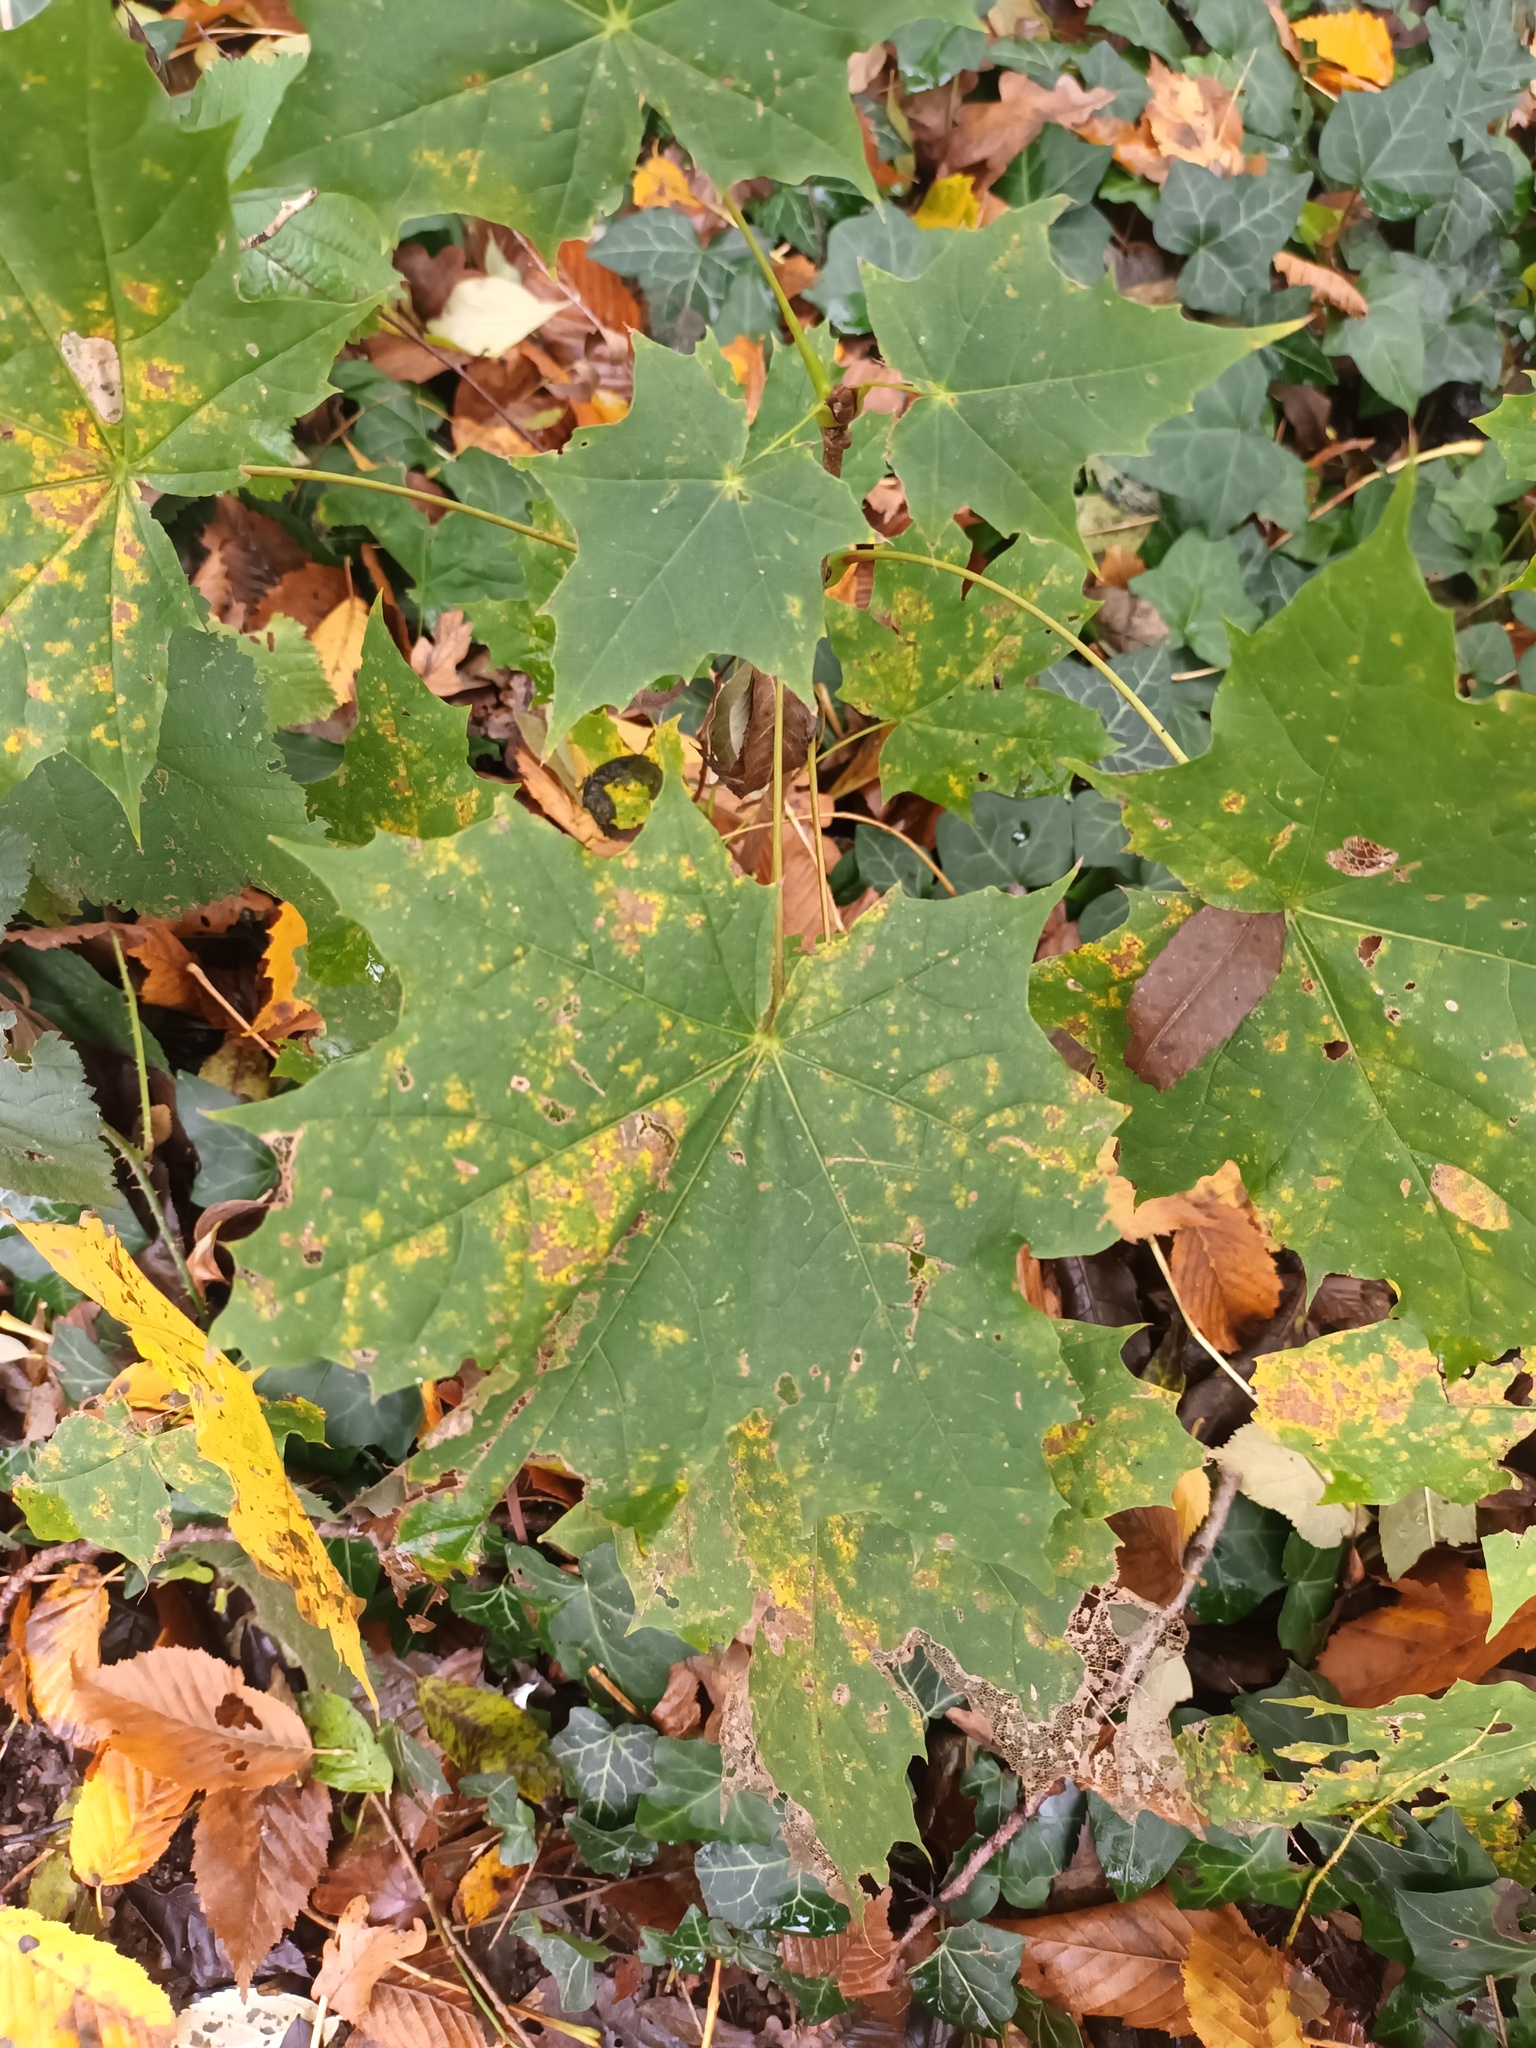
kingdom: Plantae
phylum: Tracheophyta
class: Magnoliopsida
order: Sapindales
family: Sapindaceae
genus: Acer
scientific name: Acer platanoides
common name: Norway maple
